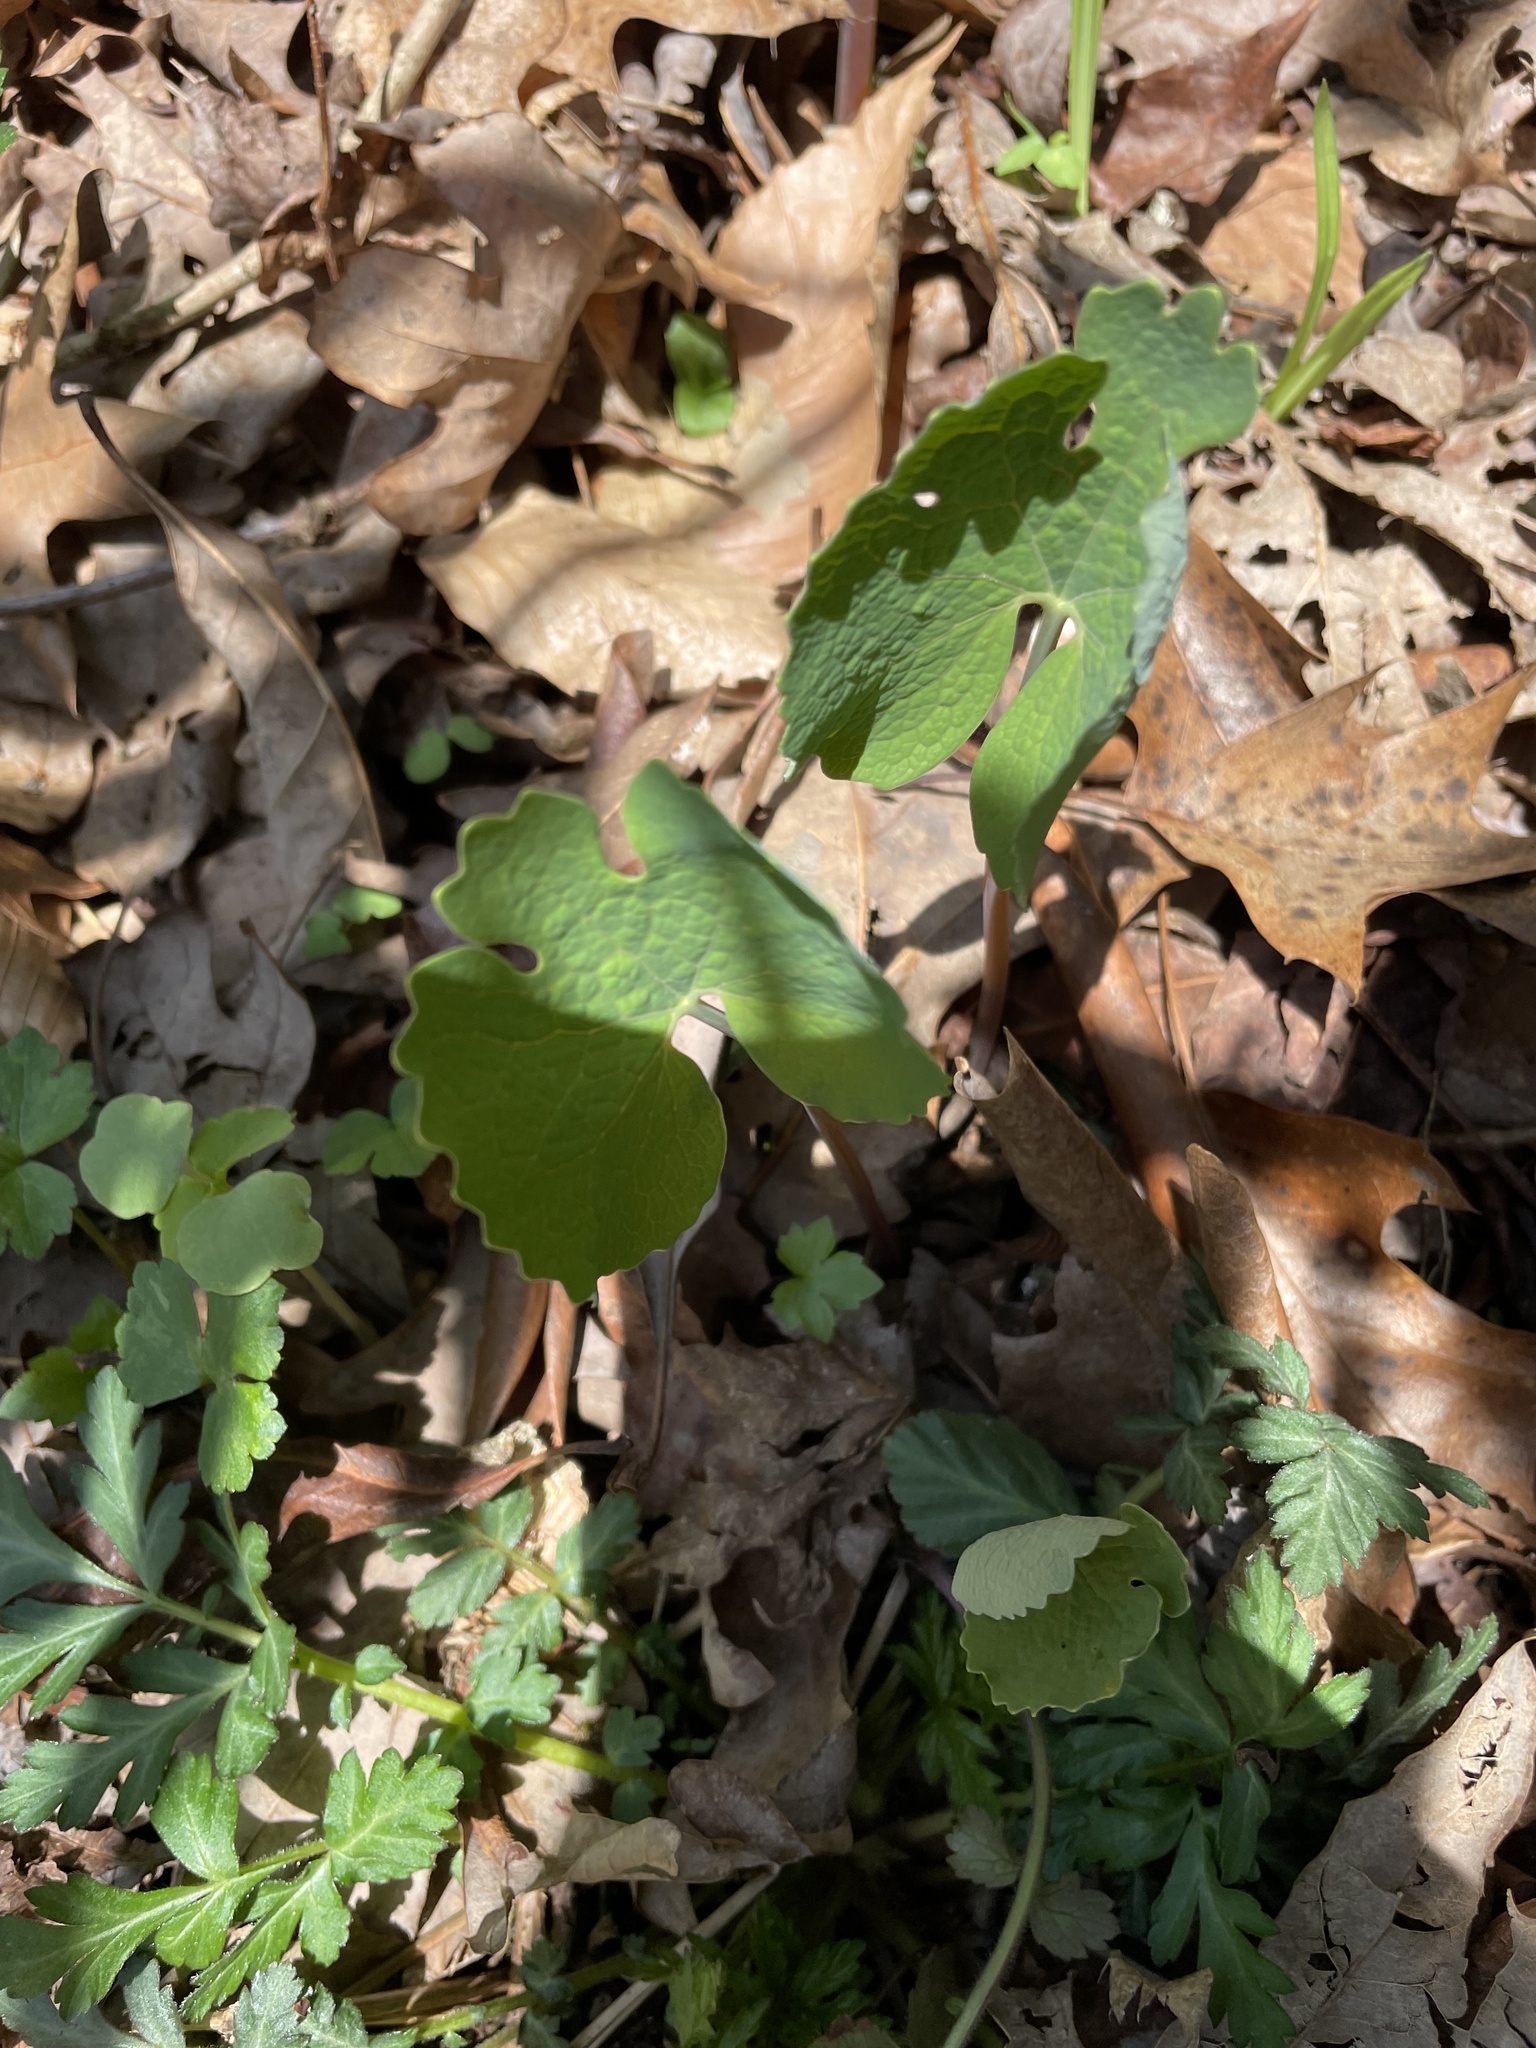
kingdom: Plantae
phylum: Tracheophyta
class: Magnoliopsida
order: Ranunculales
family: Papaveraceae
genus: Sanguinaria
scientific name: Sanguinaria canadensis
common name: Bloodroot
